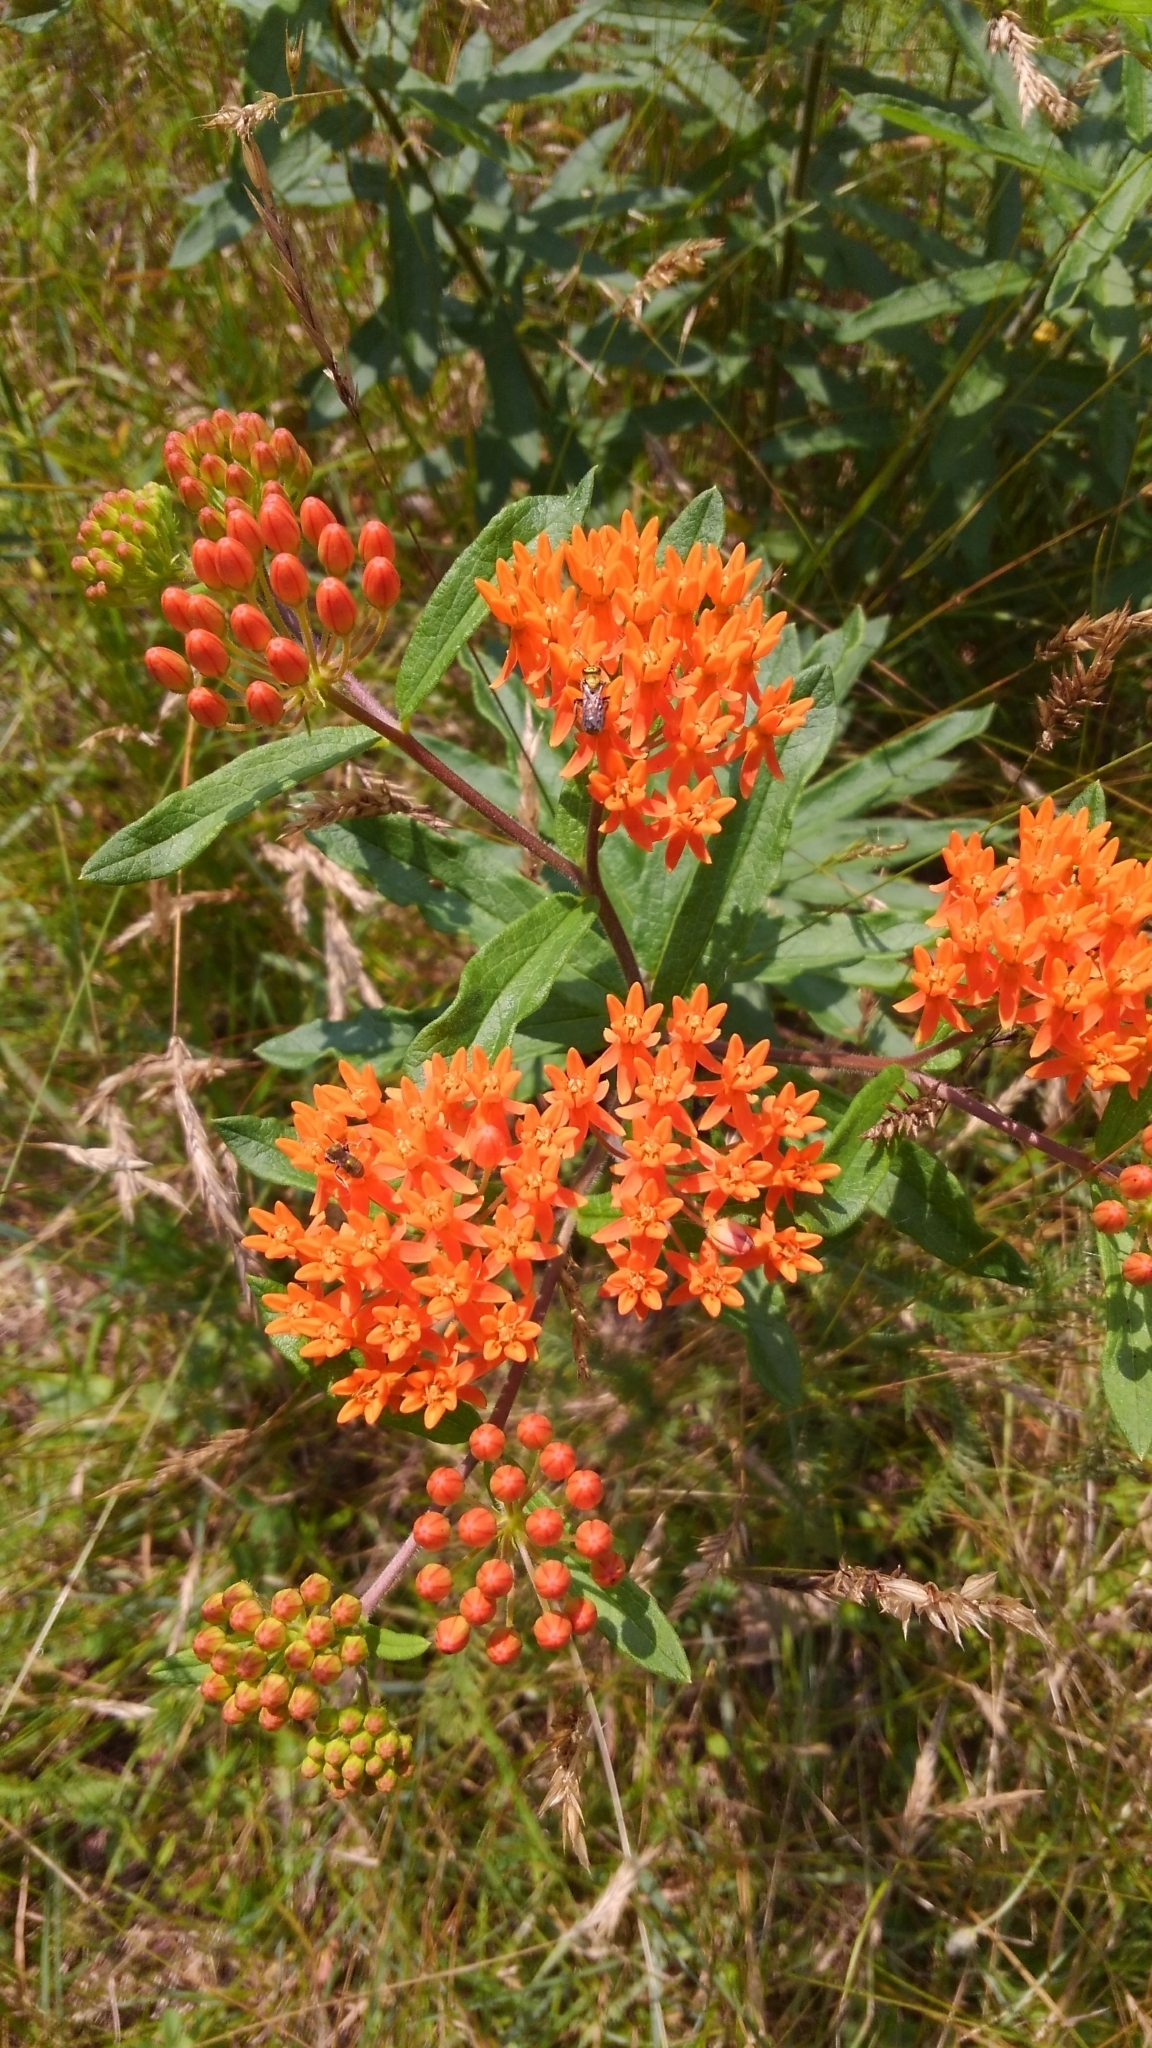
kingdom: Plantae
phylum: Tracheophyta
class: Magnoliopsida
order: Gentianales
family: Apocynaceae
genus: Asclepias
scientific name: Asclepias tuberosa
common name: Butterfly milkweed
